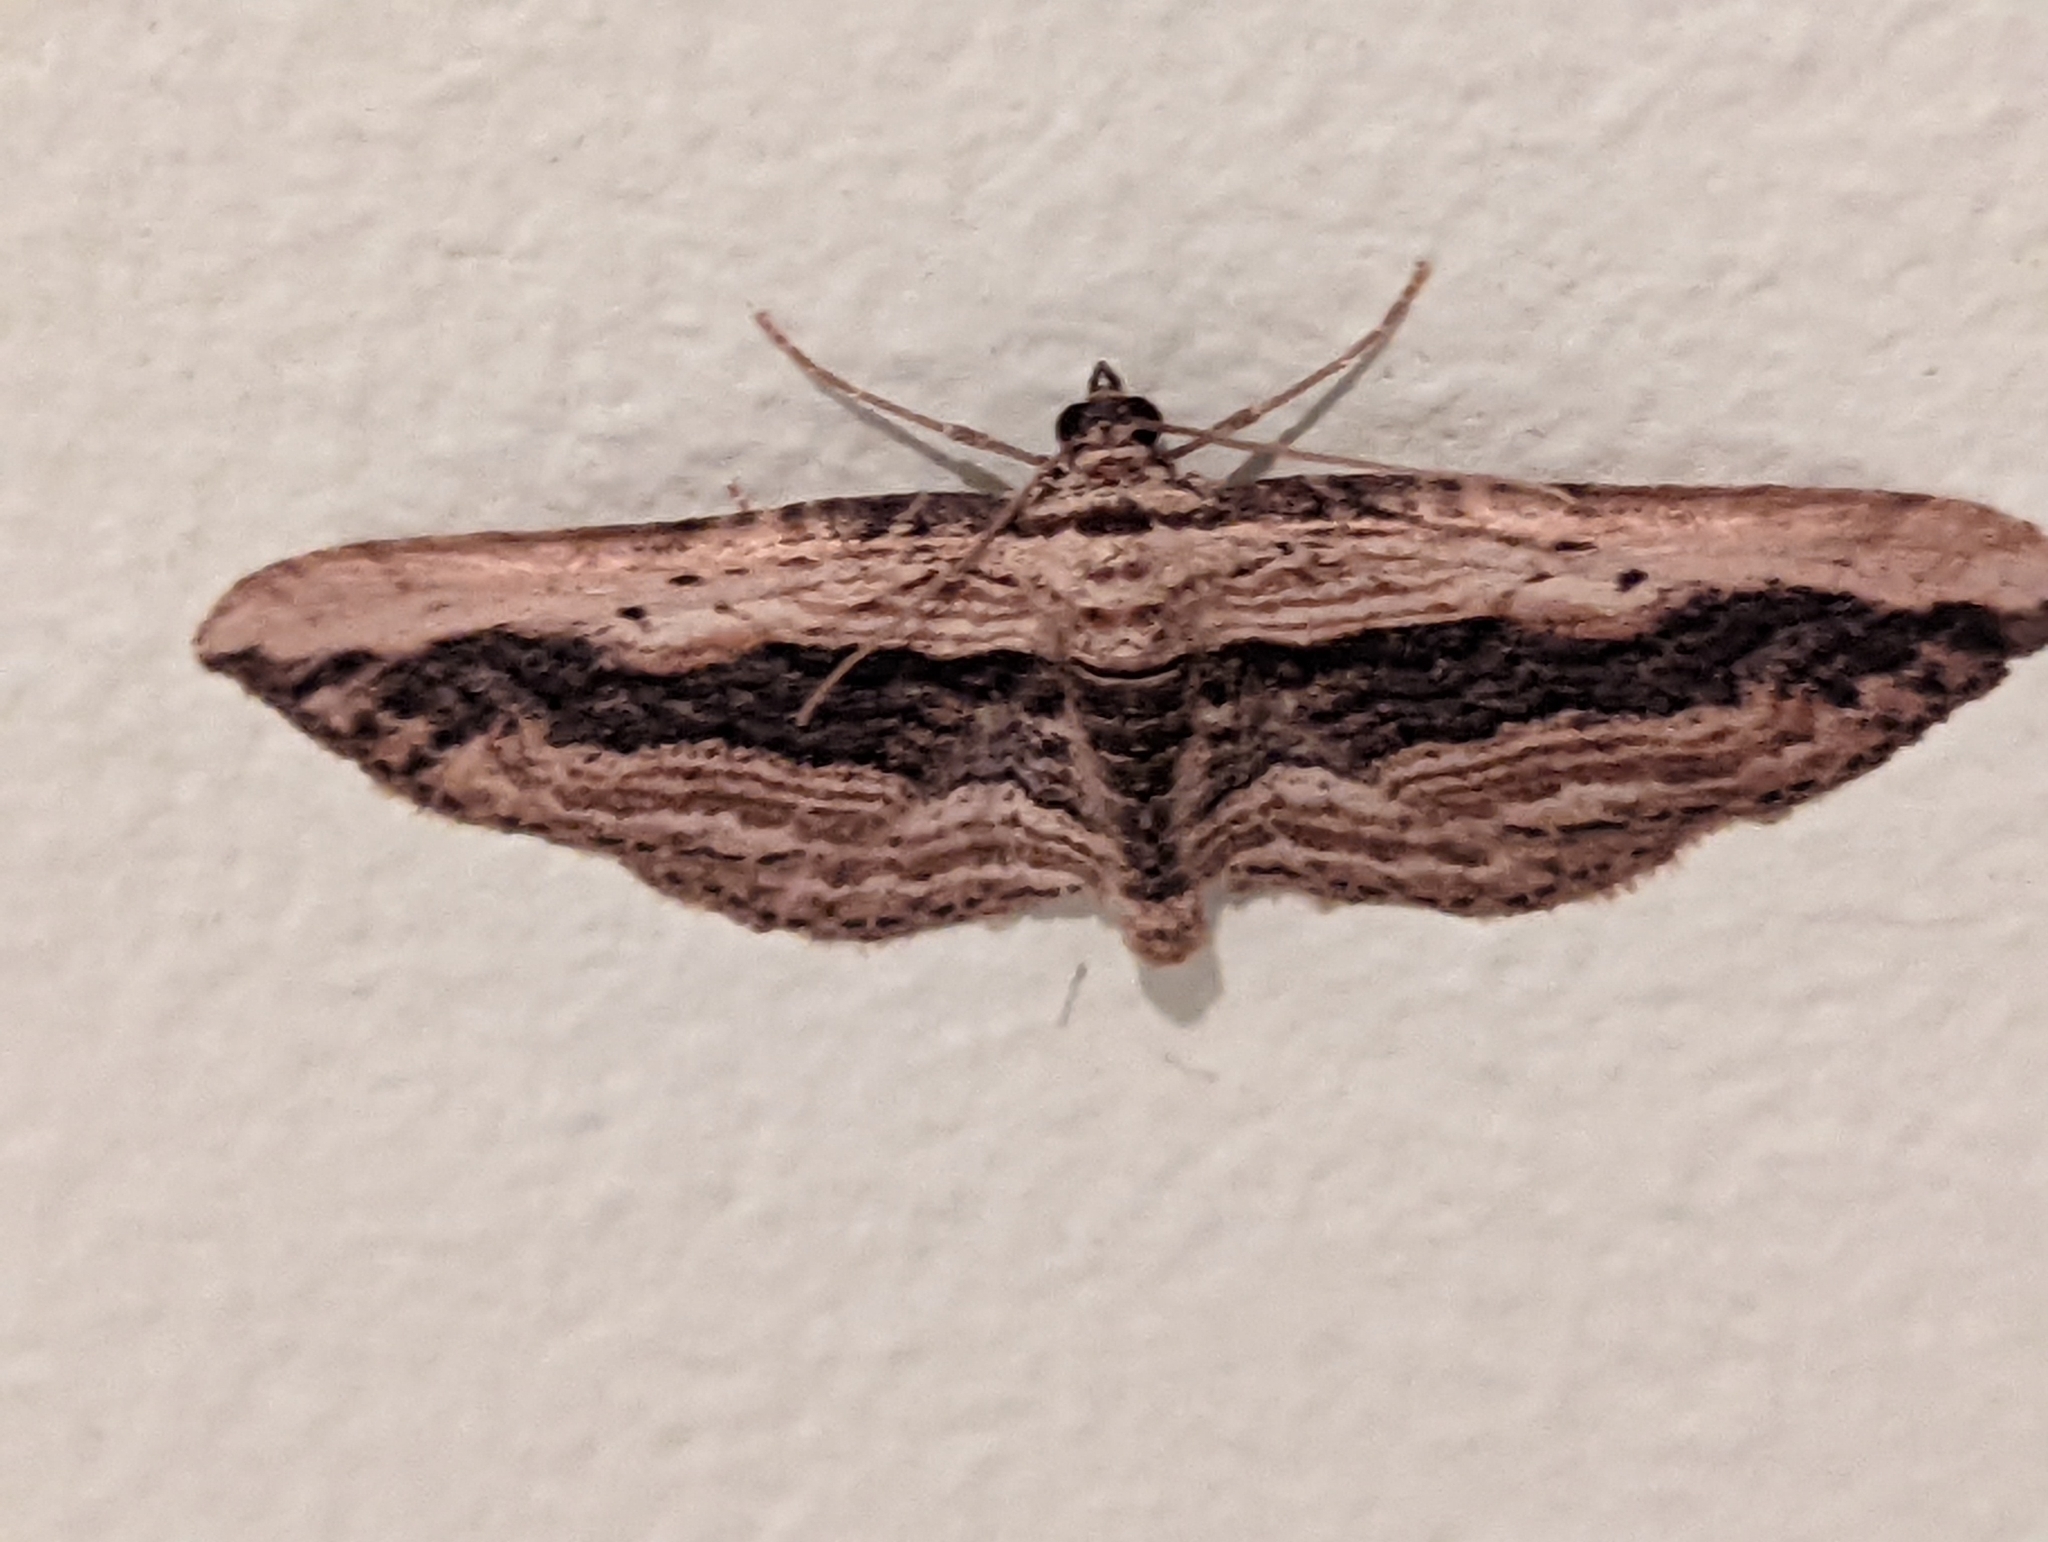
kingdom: Animalia
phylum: Arthropoda
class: Insecta
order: Lepidoptera
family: Geometridae
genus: Horisme
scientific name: Horisme vitalbata
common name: Small waved umber
